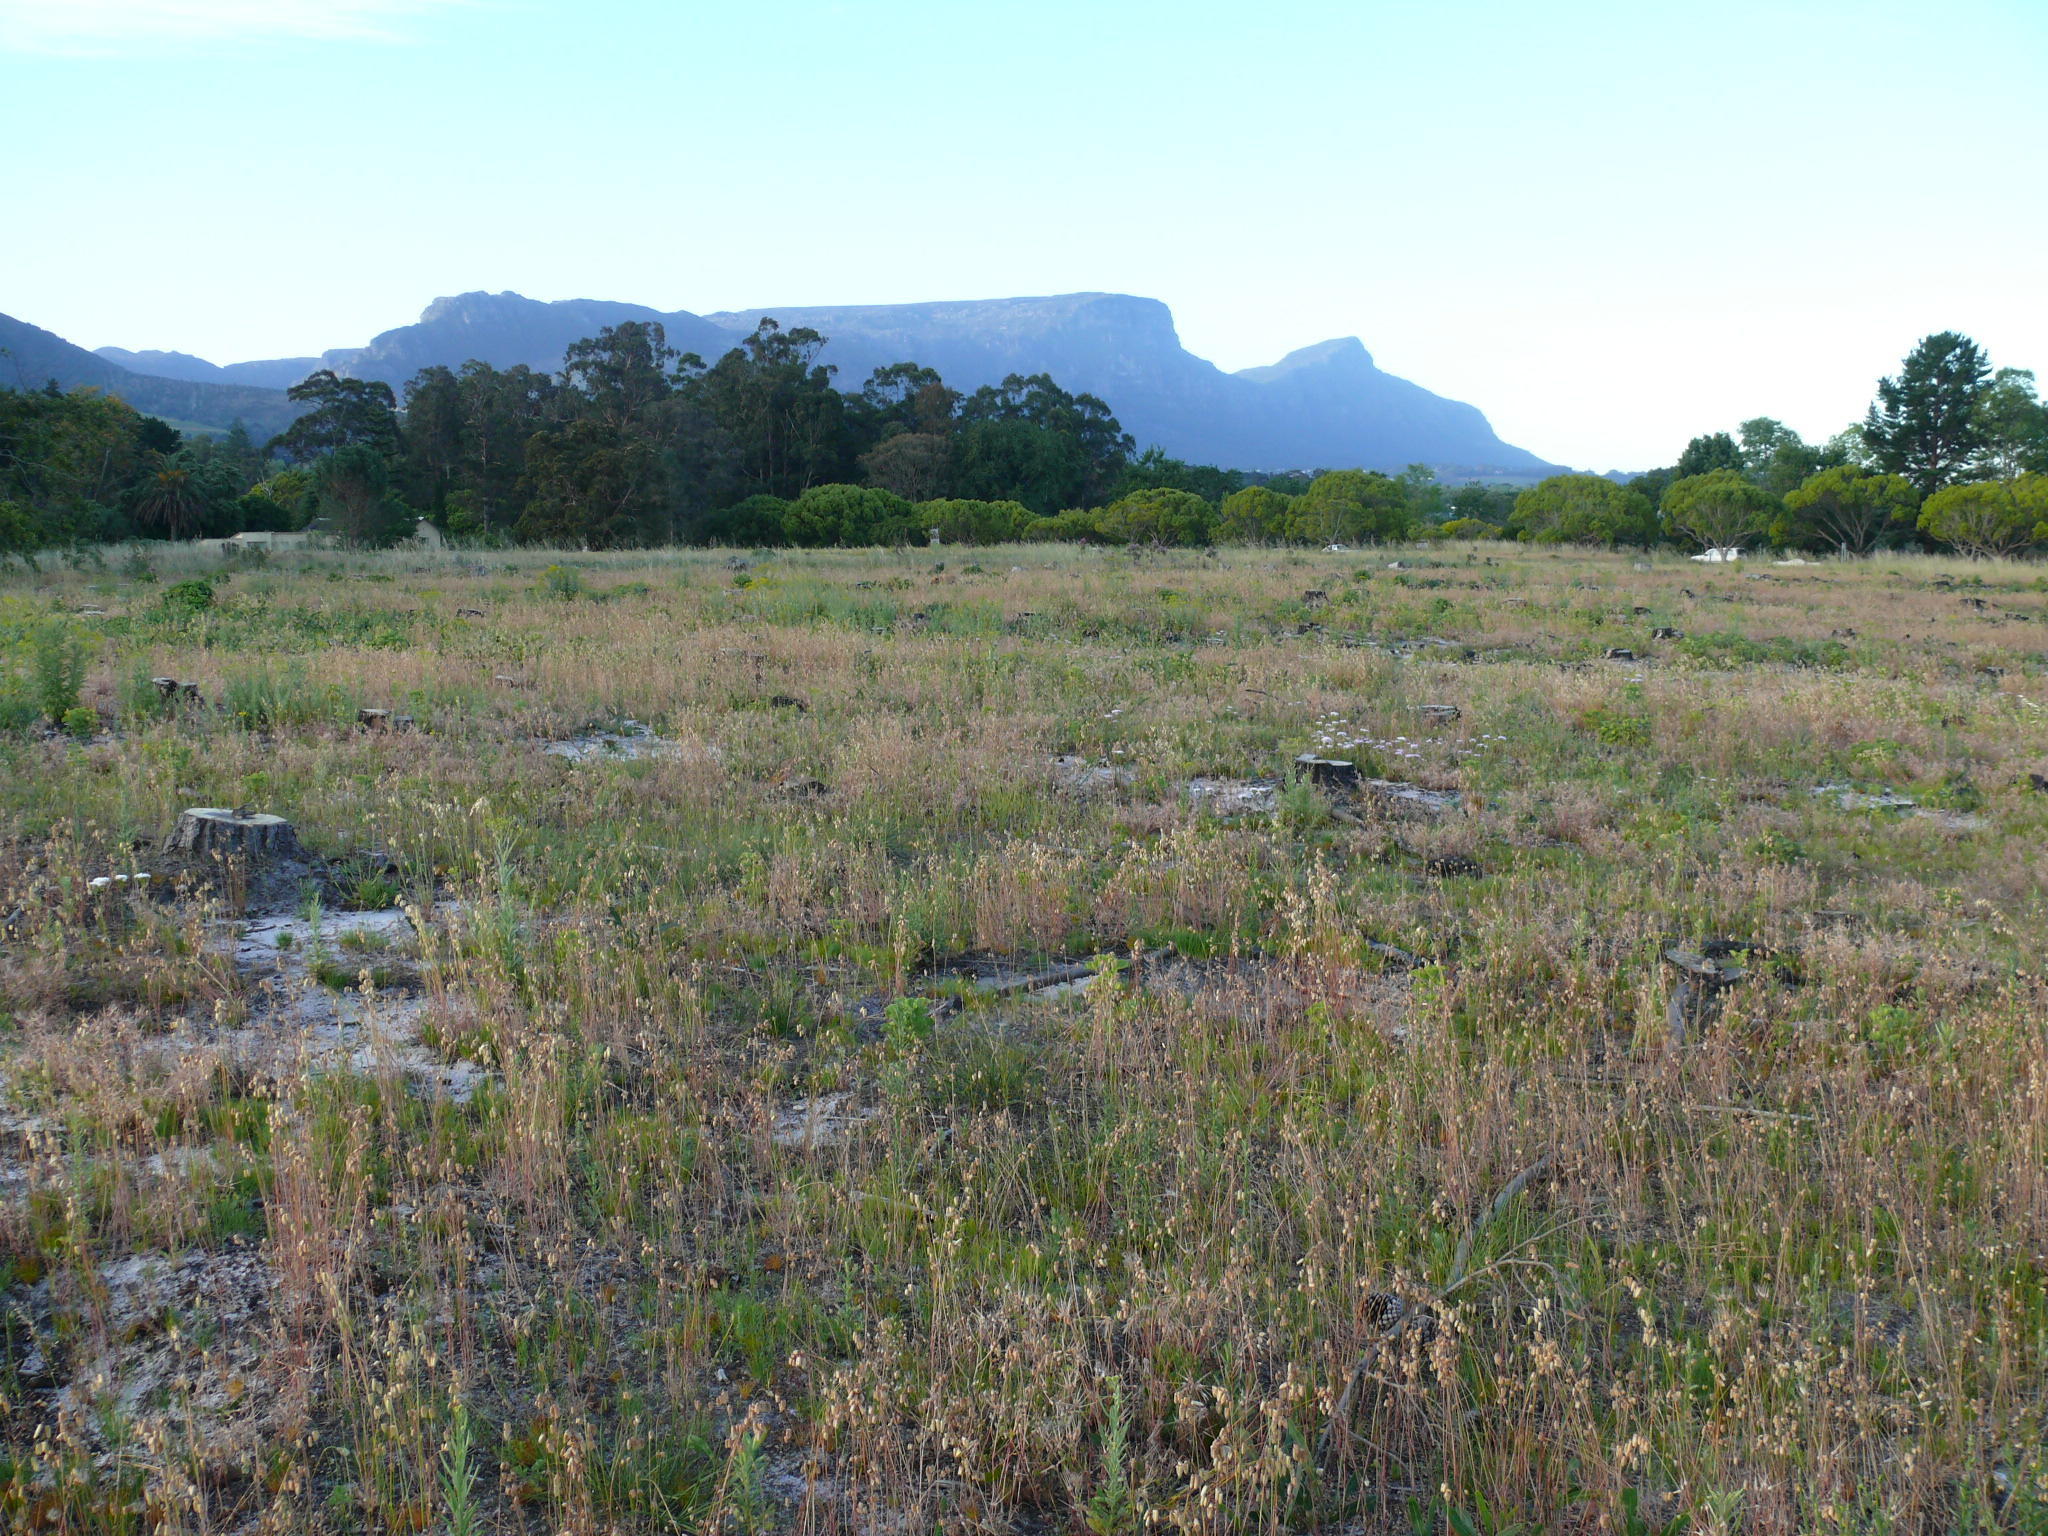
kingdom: Plantae
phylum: Tracheophyta
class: Liliopsida
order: Poales
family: Poaceae
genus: Briza
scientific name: Briza maxima
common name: Big quakinggrass
